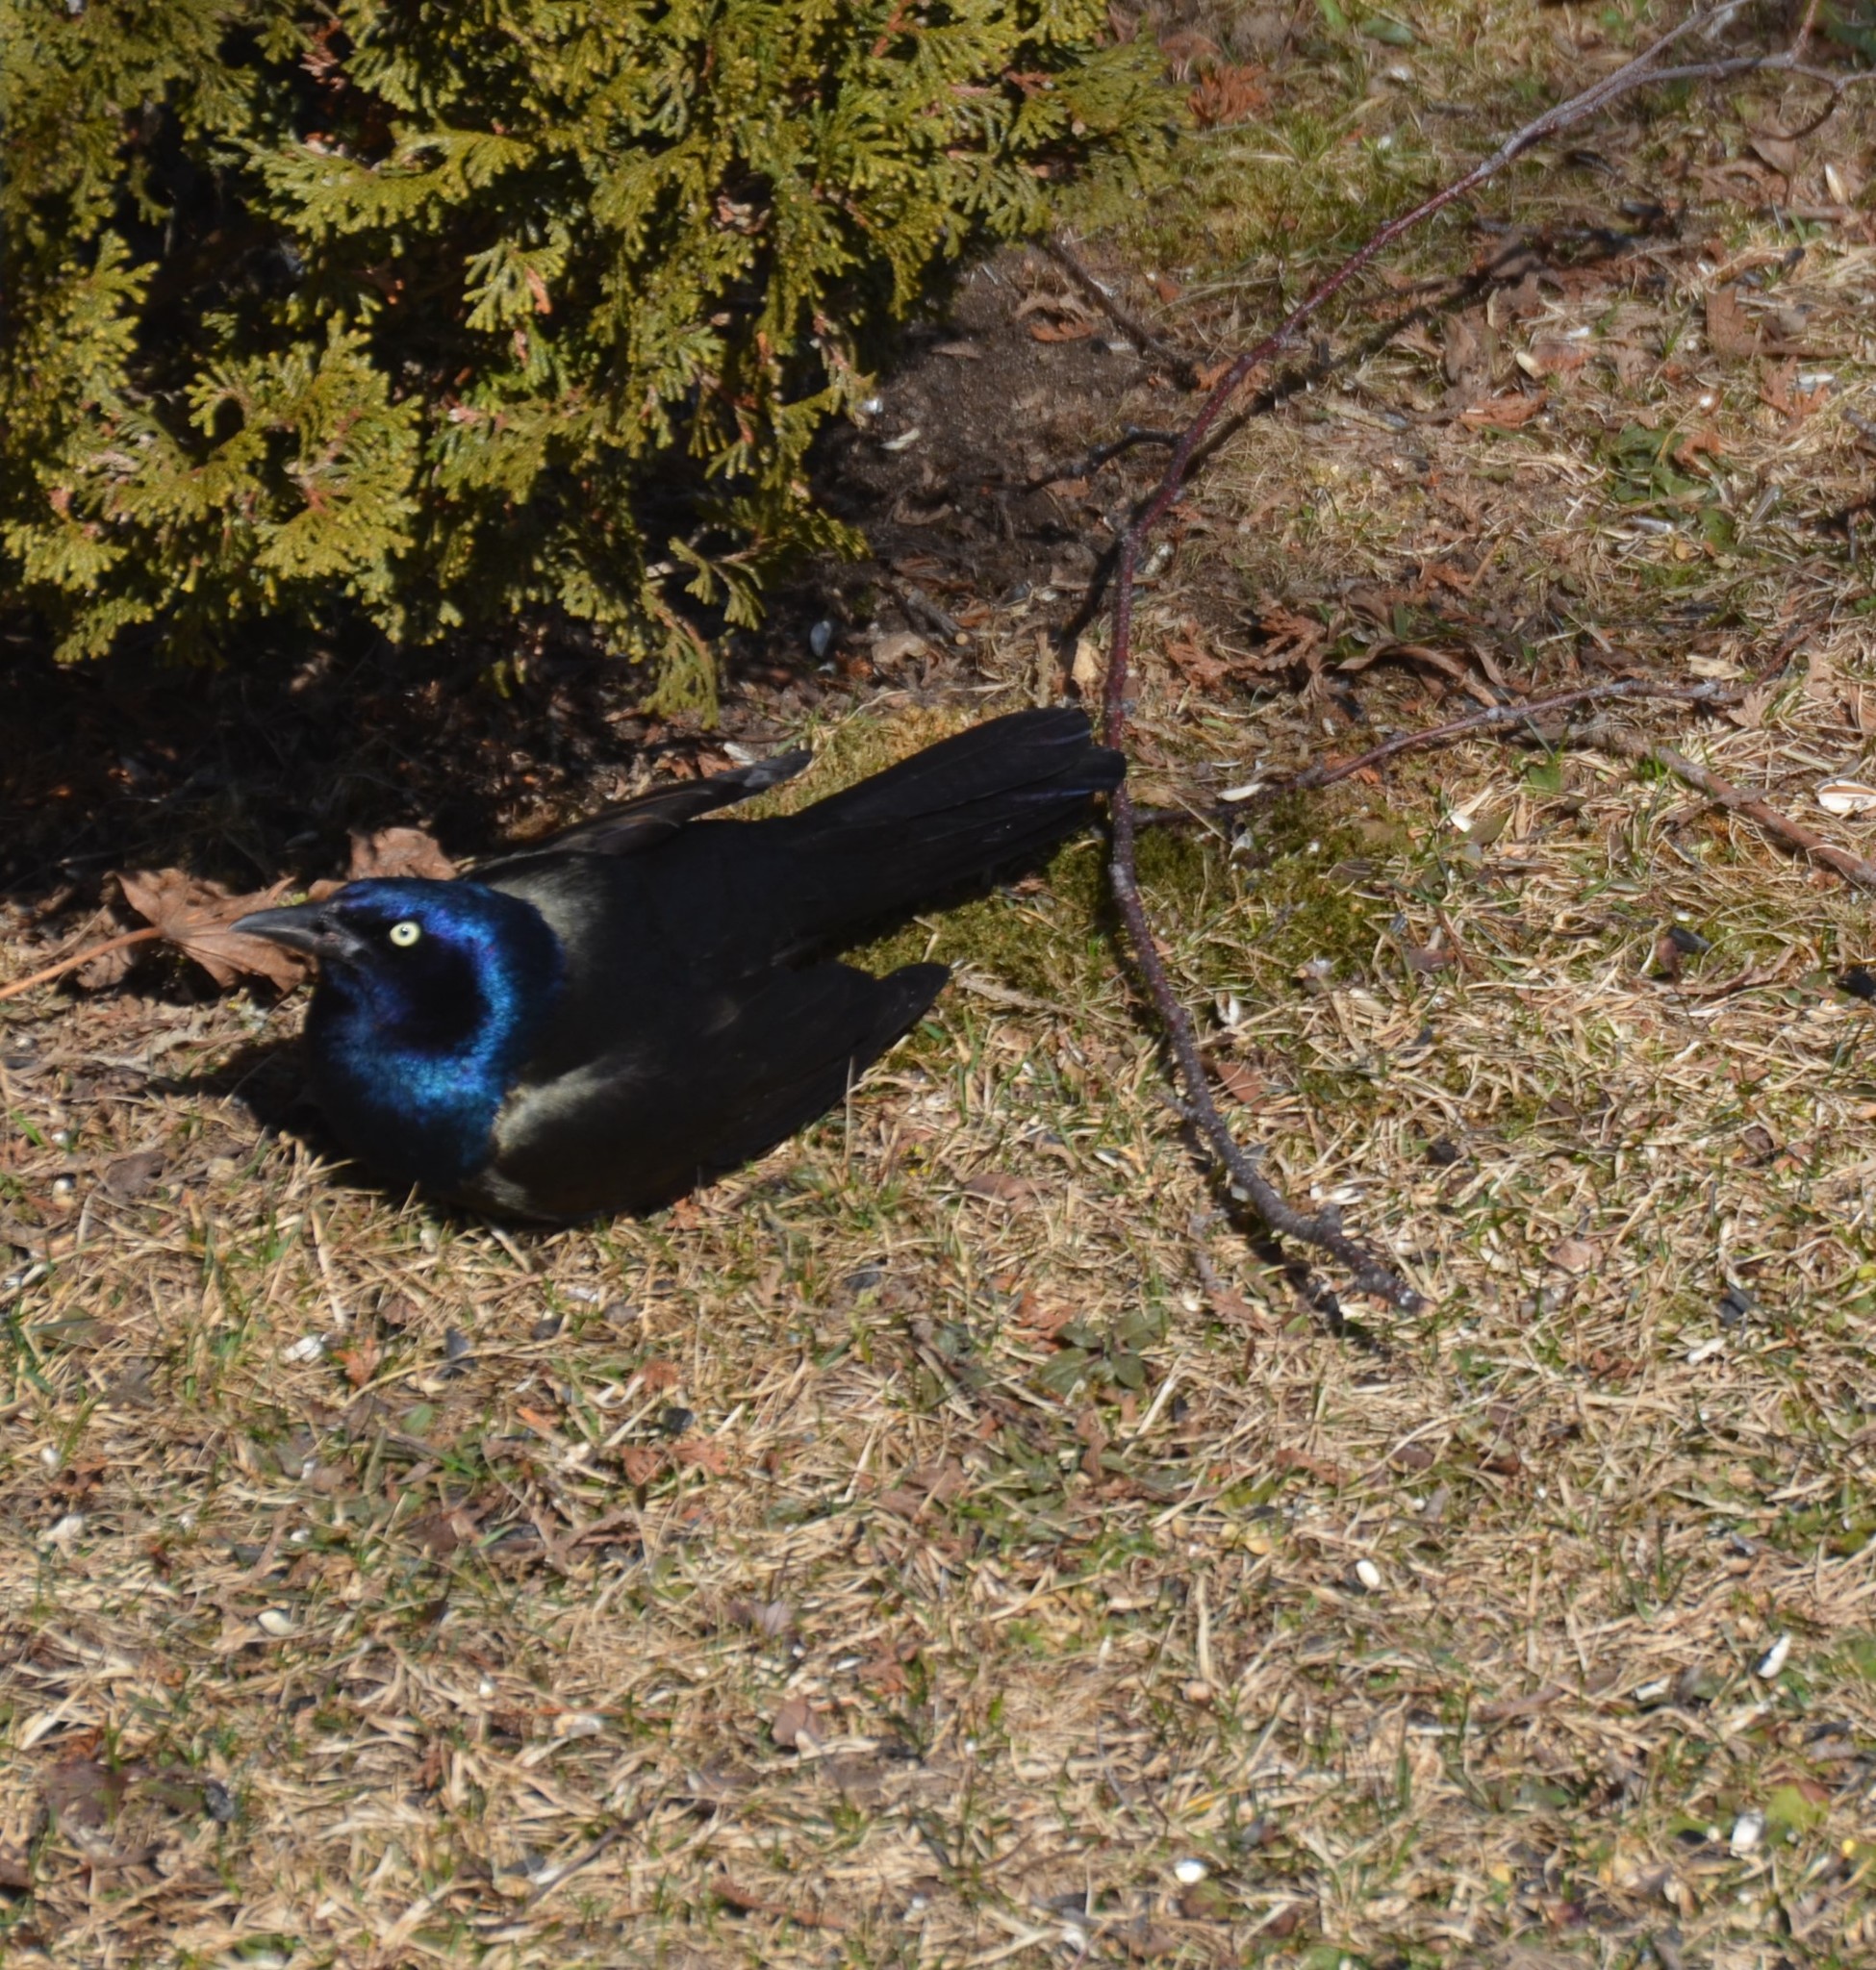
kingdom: Animalia
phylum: Chordata
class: Aves
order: Passeriformes
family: Icteridae
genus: Quiscalus
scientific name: Quiscalus quiscula
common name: Common grackle
